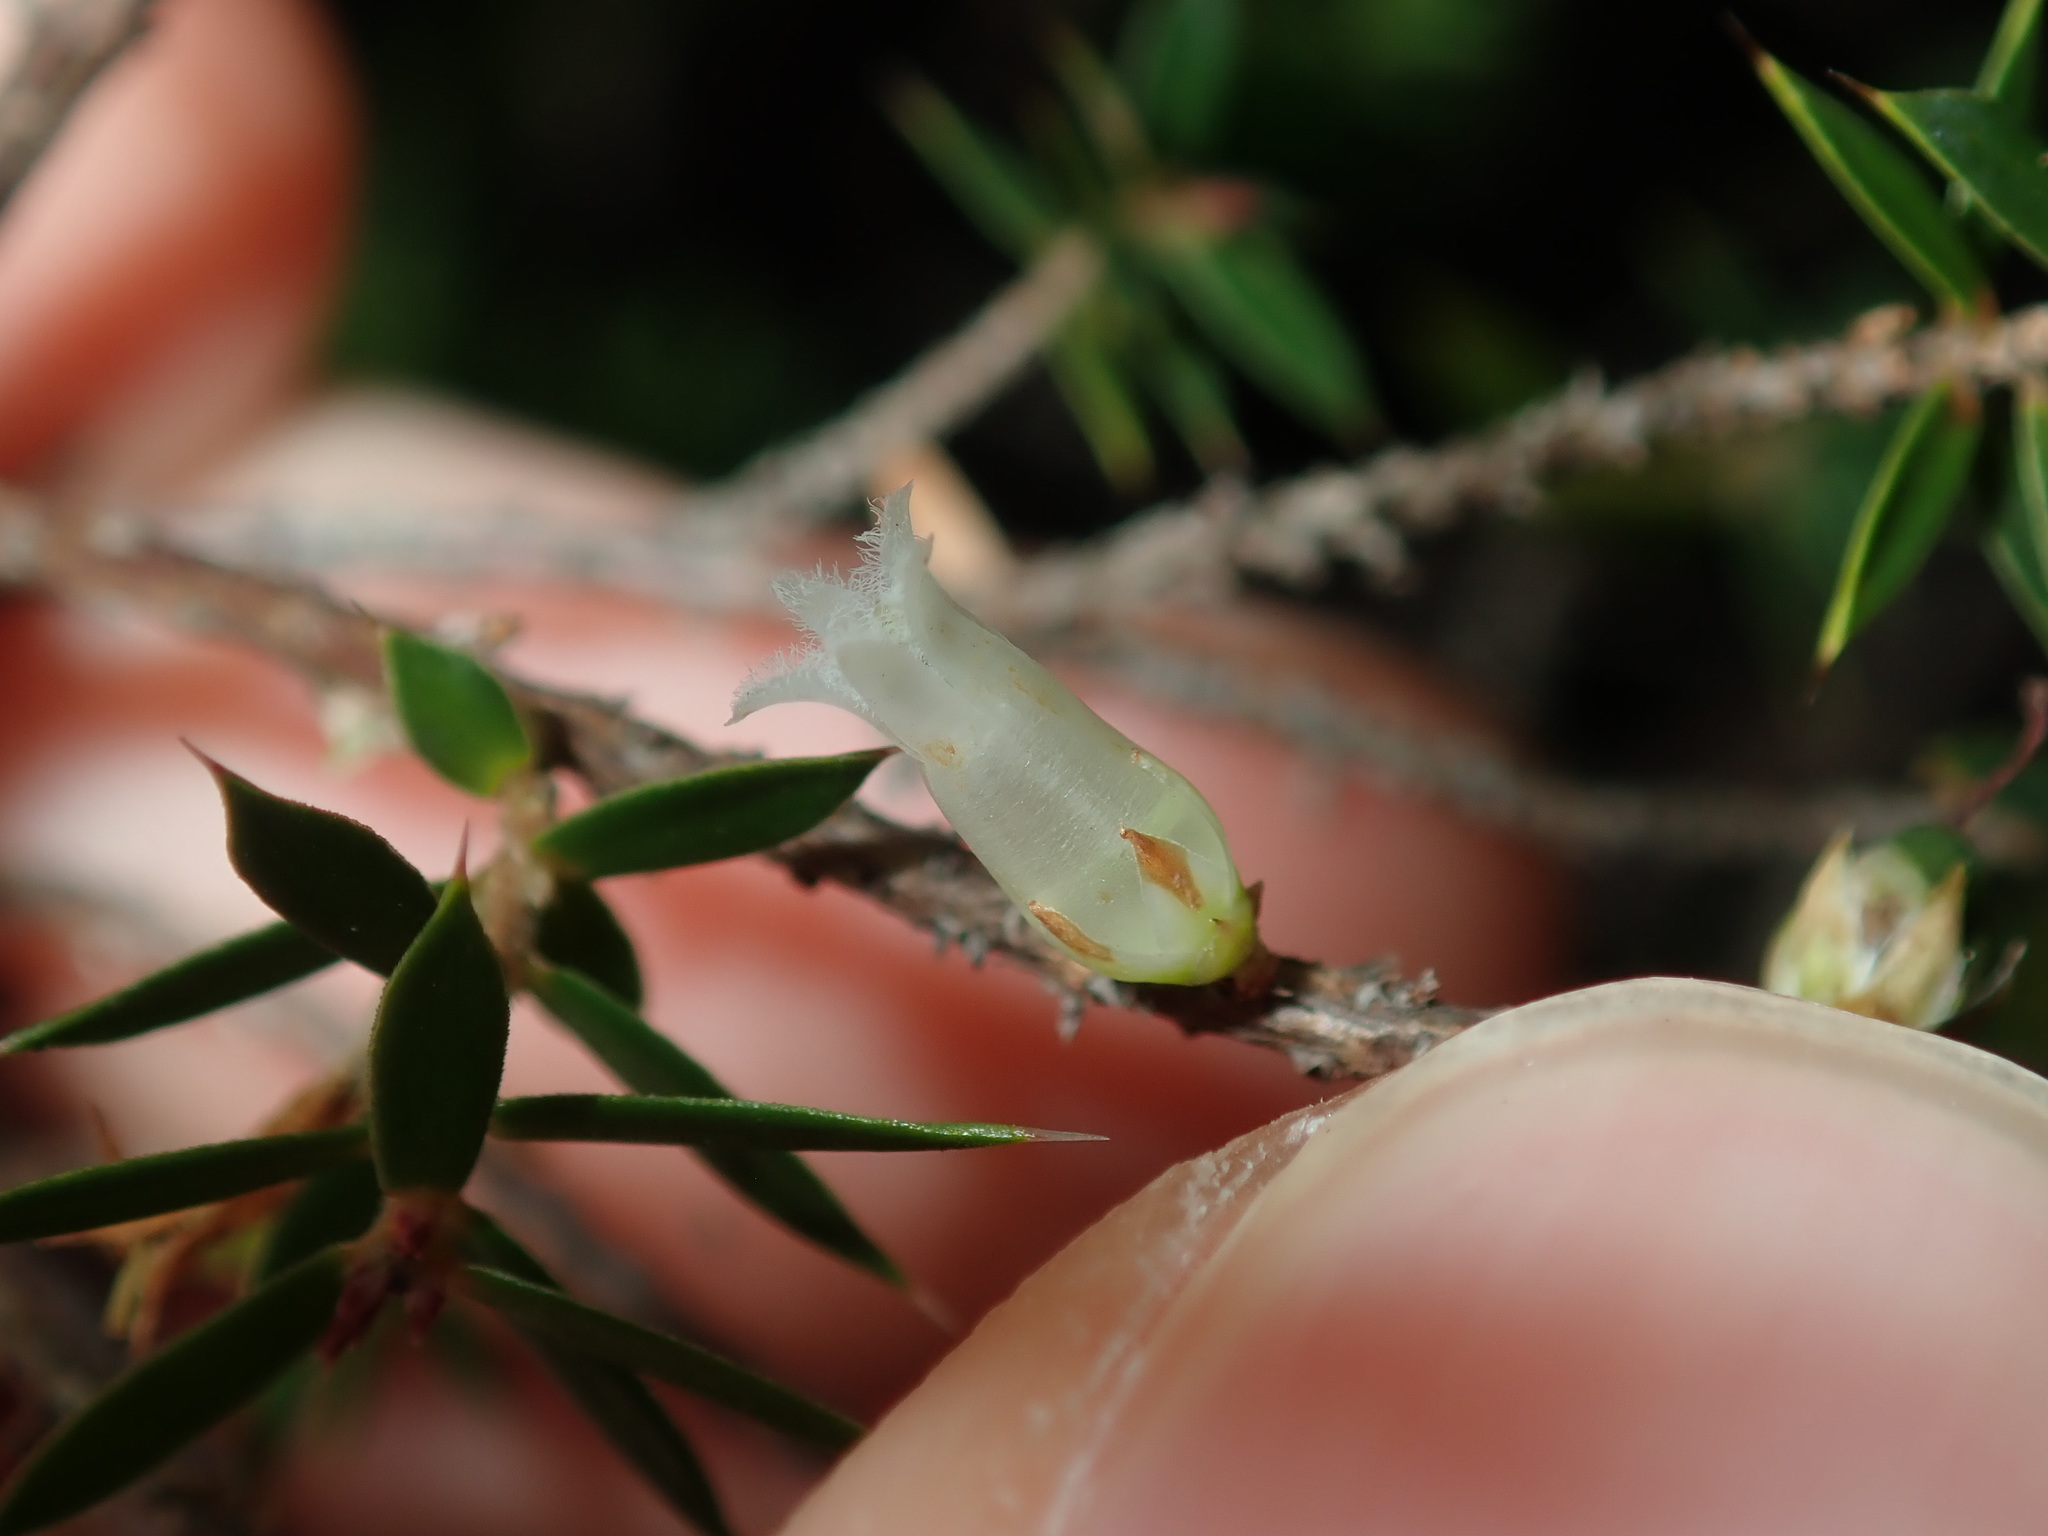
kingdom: Plantae
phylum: Tracheophyta
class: Magnoliopsida
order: Ericales
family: Ericaceae
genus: Styphelia
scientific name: Styphelia sieberi
